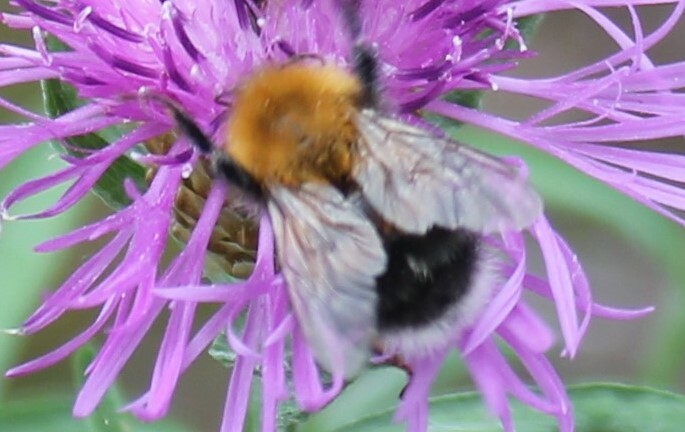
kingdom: Animalia
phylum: Arthropoda
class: Insecta
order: Hymenoptera
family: Apidae
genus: Bombus
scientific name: Bombus hypnorum
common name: New garden bumblebee
